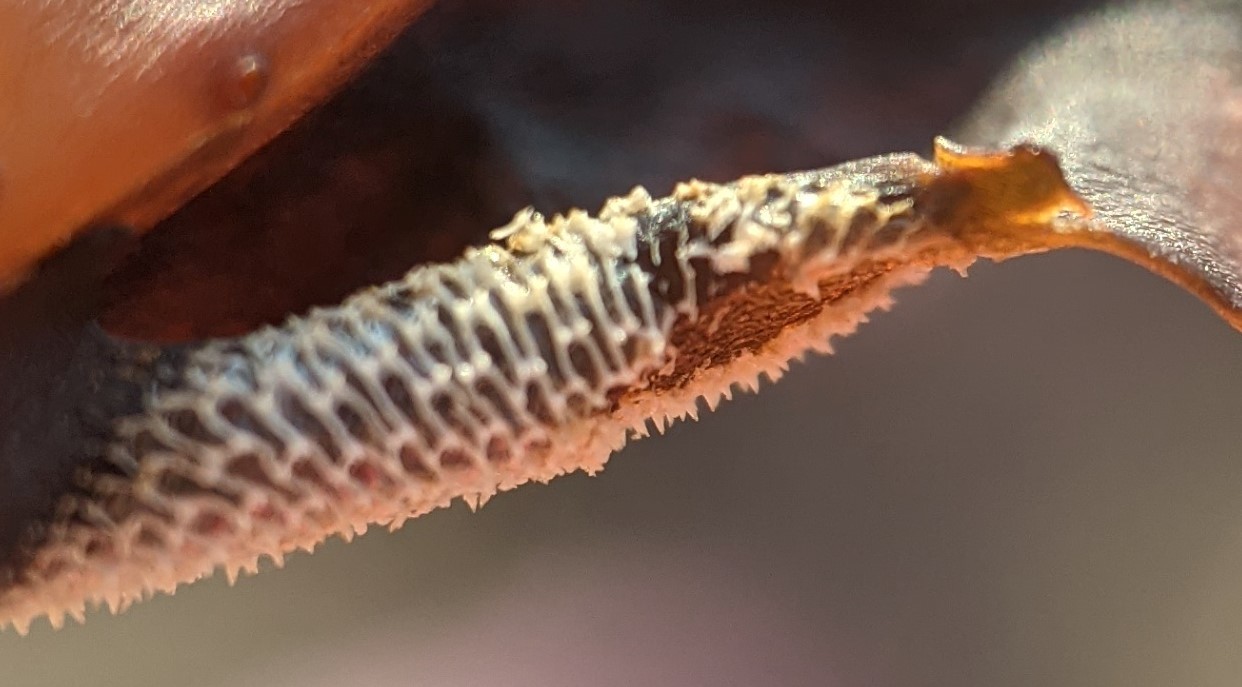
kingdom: Animalia
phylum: Bryozoa
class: Gymnolaemata
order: Cheilostomatida
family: Membraniporidae
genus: Membranipora
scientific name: Membranipora membranacea
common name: Sea mat
